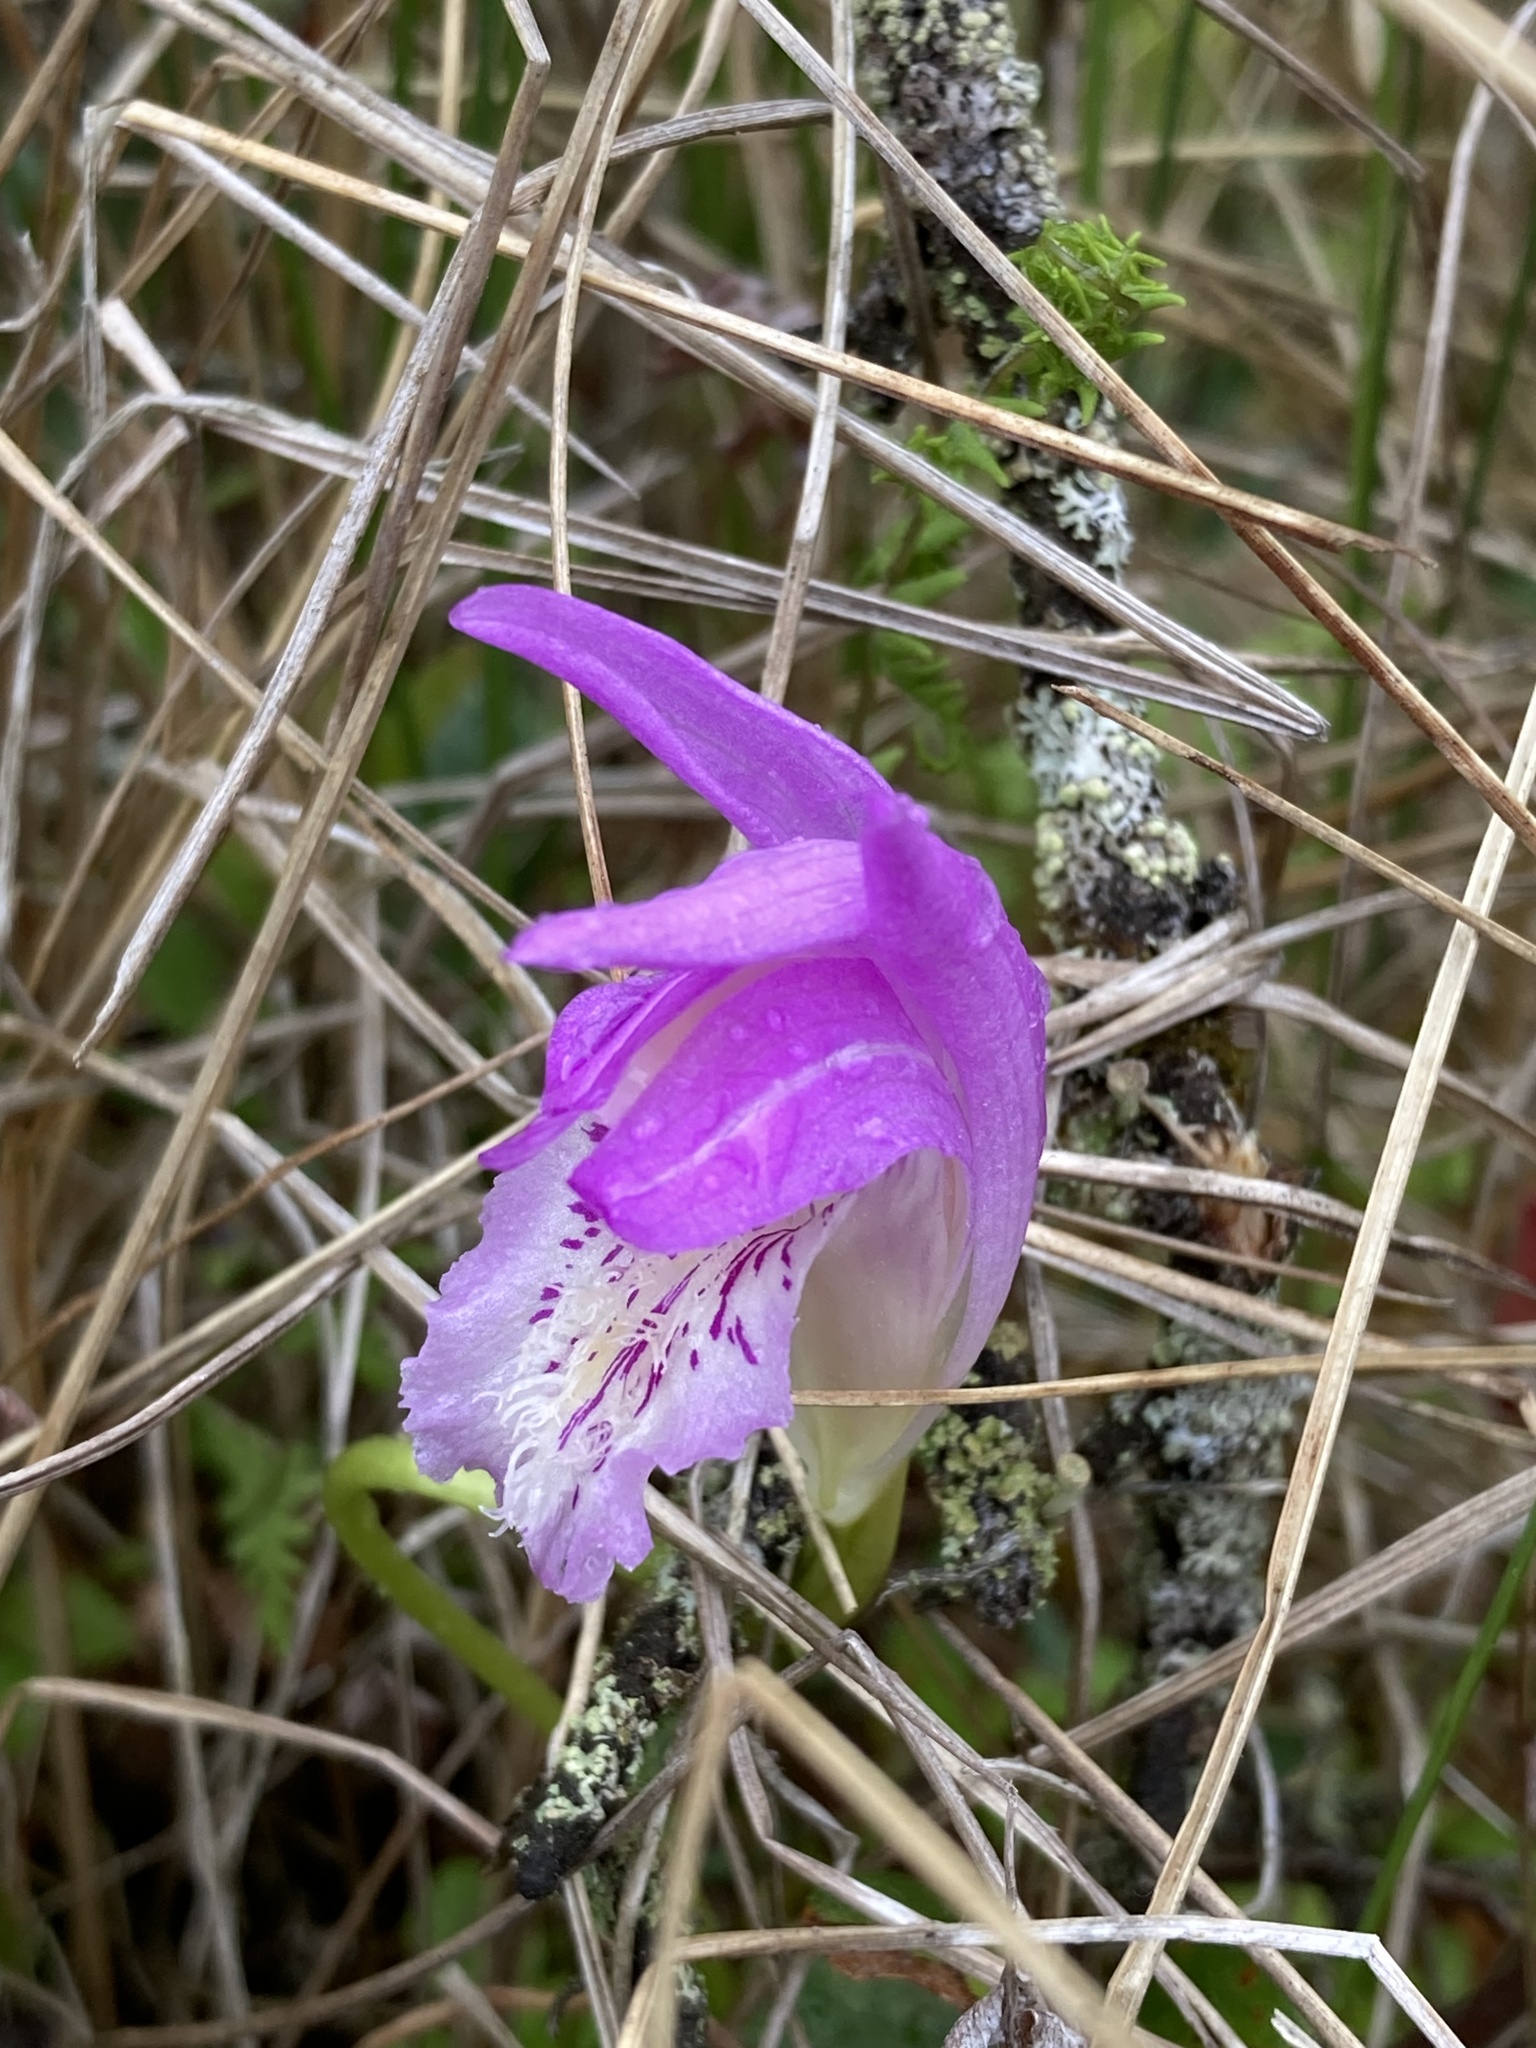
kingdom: Plantae
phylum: Tracheophyta
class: Liliopsida
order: Asparagales
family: Orchidaceae
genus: Arethusa
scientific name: Arethusa bulbosa
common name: Arethusa
